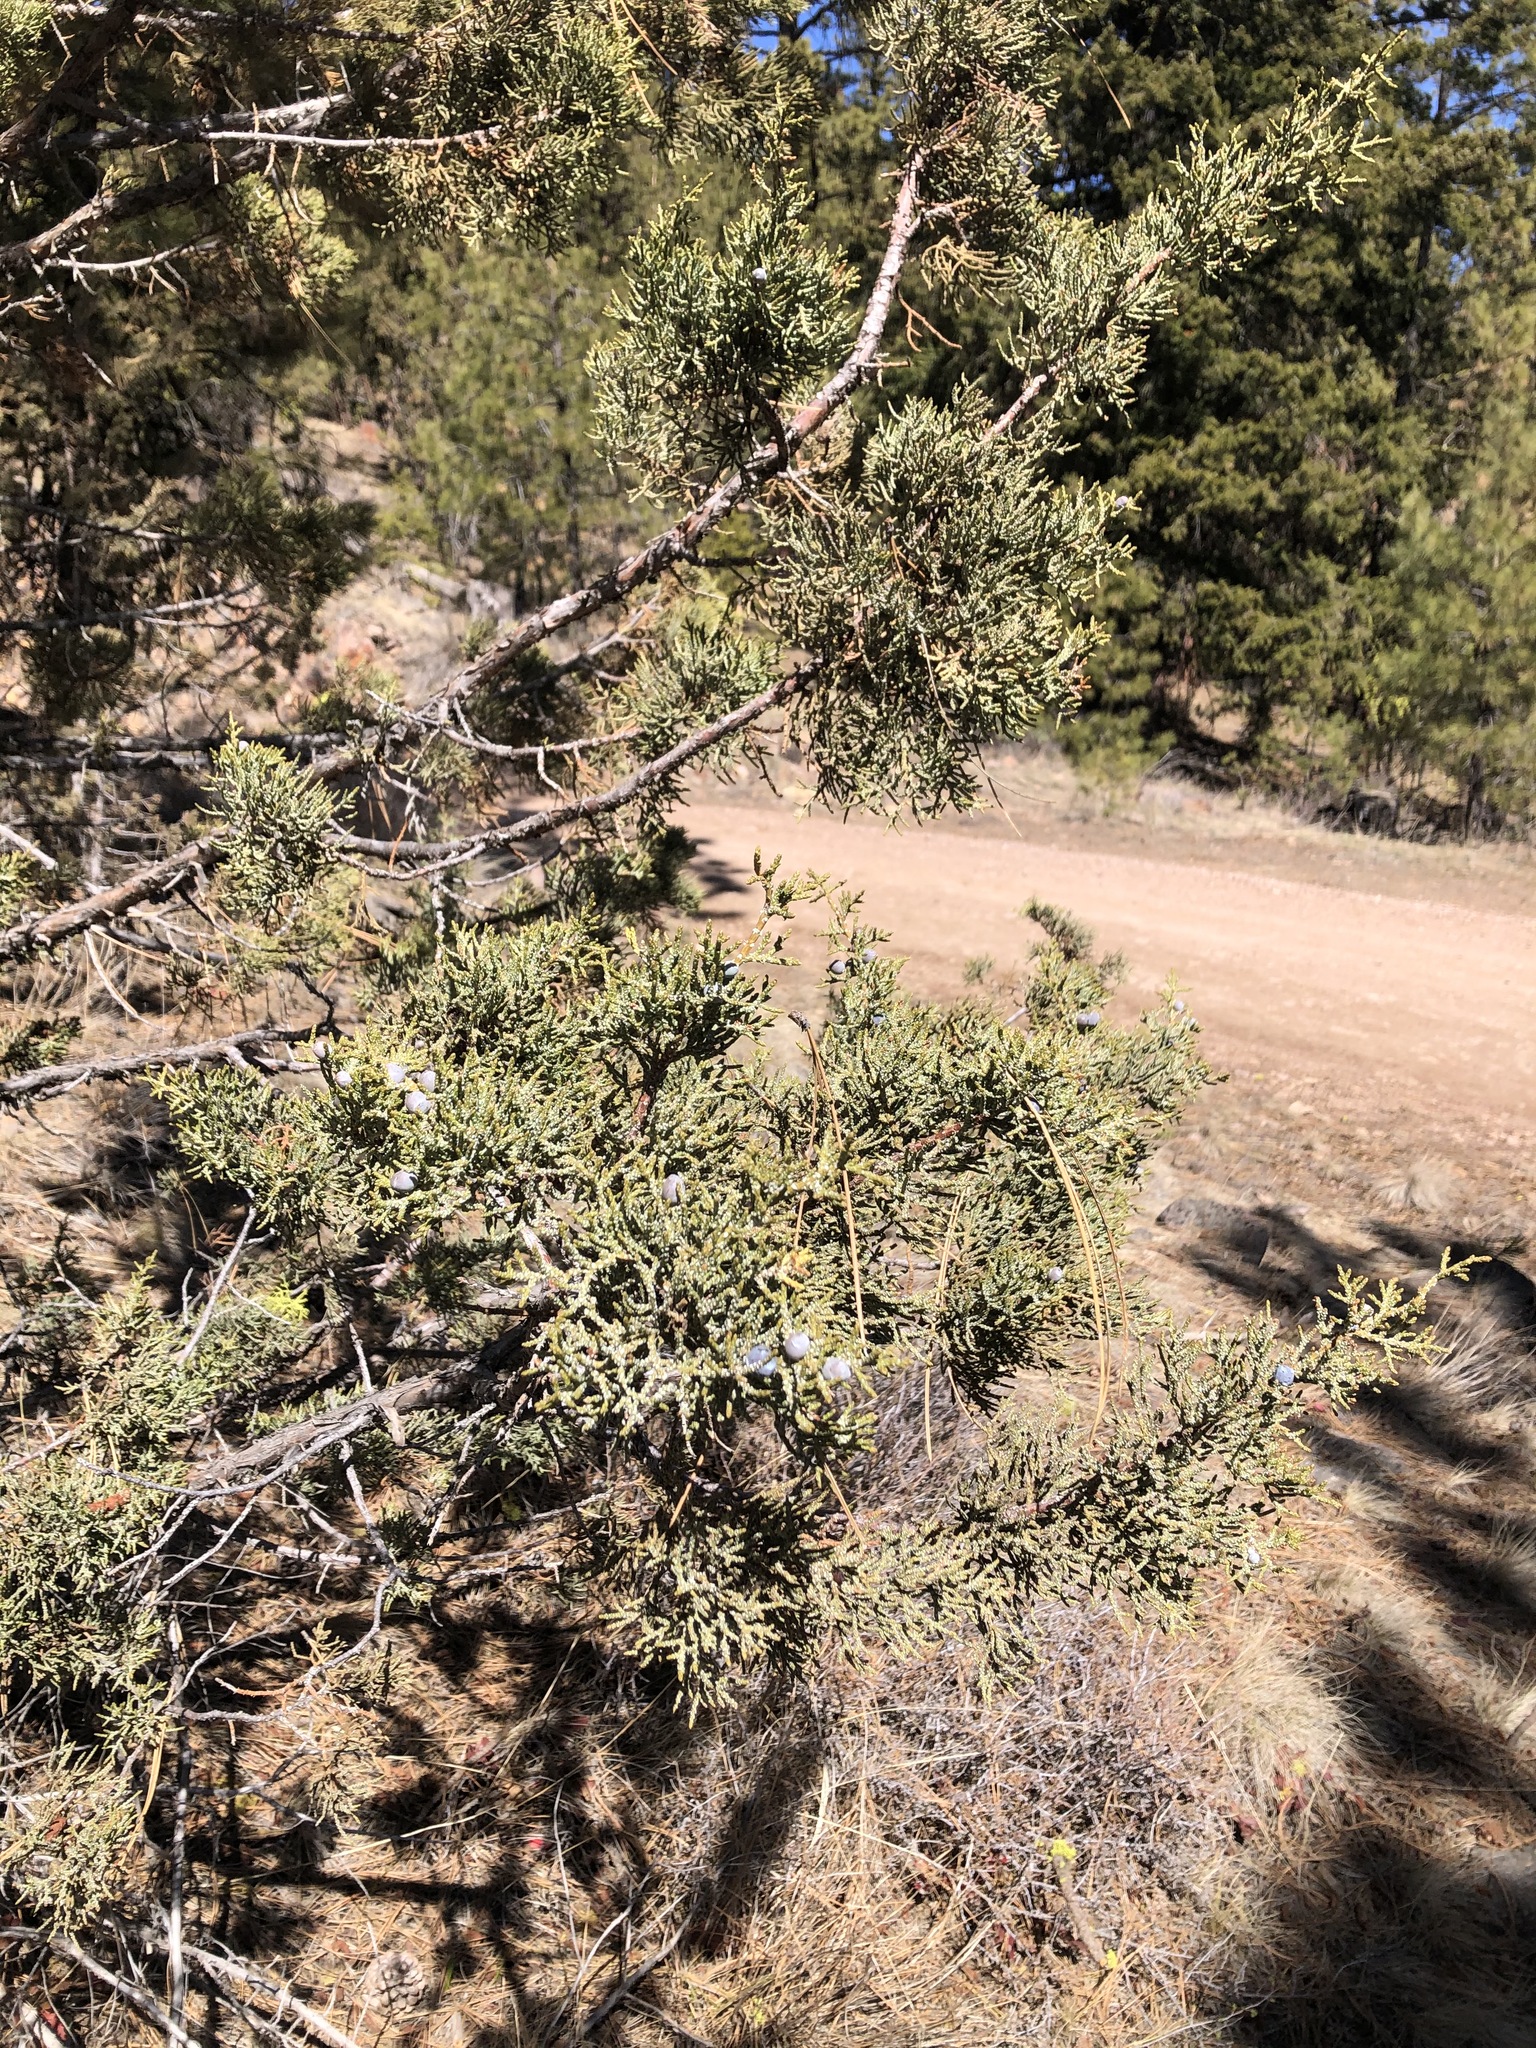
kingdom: Plantae
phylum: Tracheophyta
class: Pinopsida
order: Pinales
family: Cupressaceae
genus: Juniperus
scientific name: Juniperus occidentalis
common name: Western juniper
